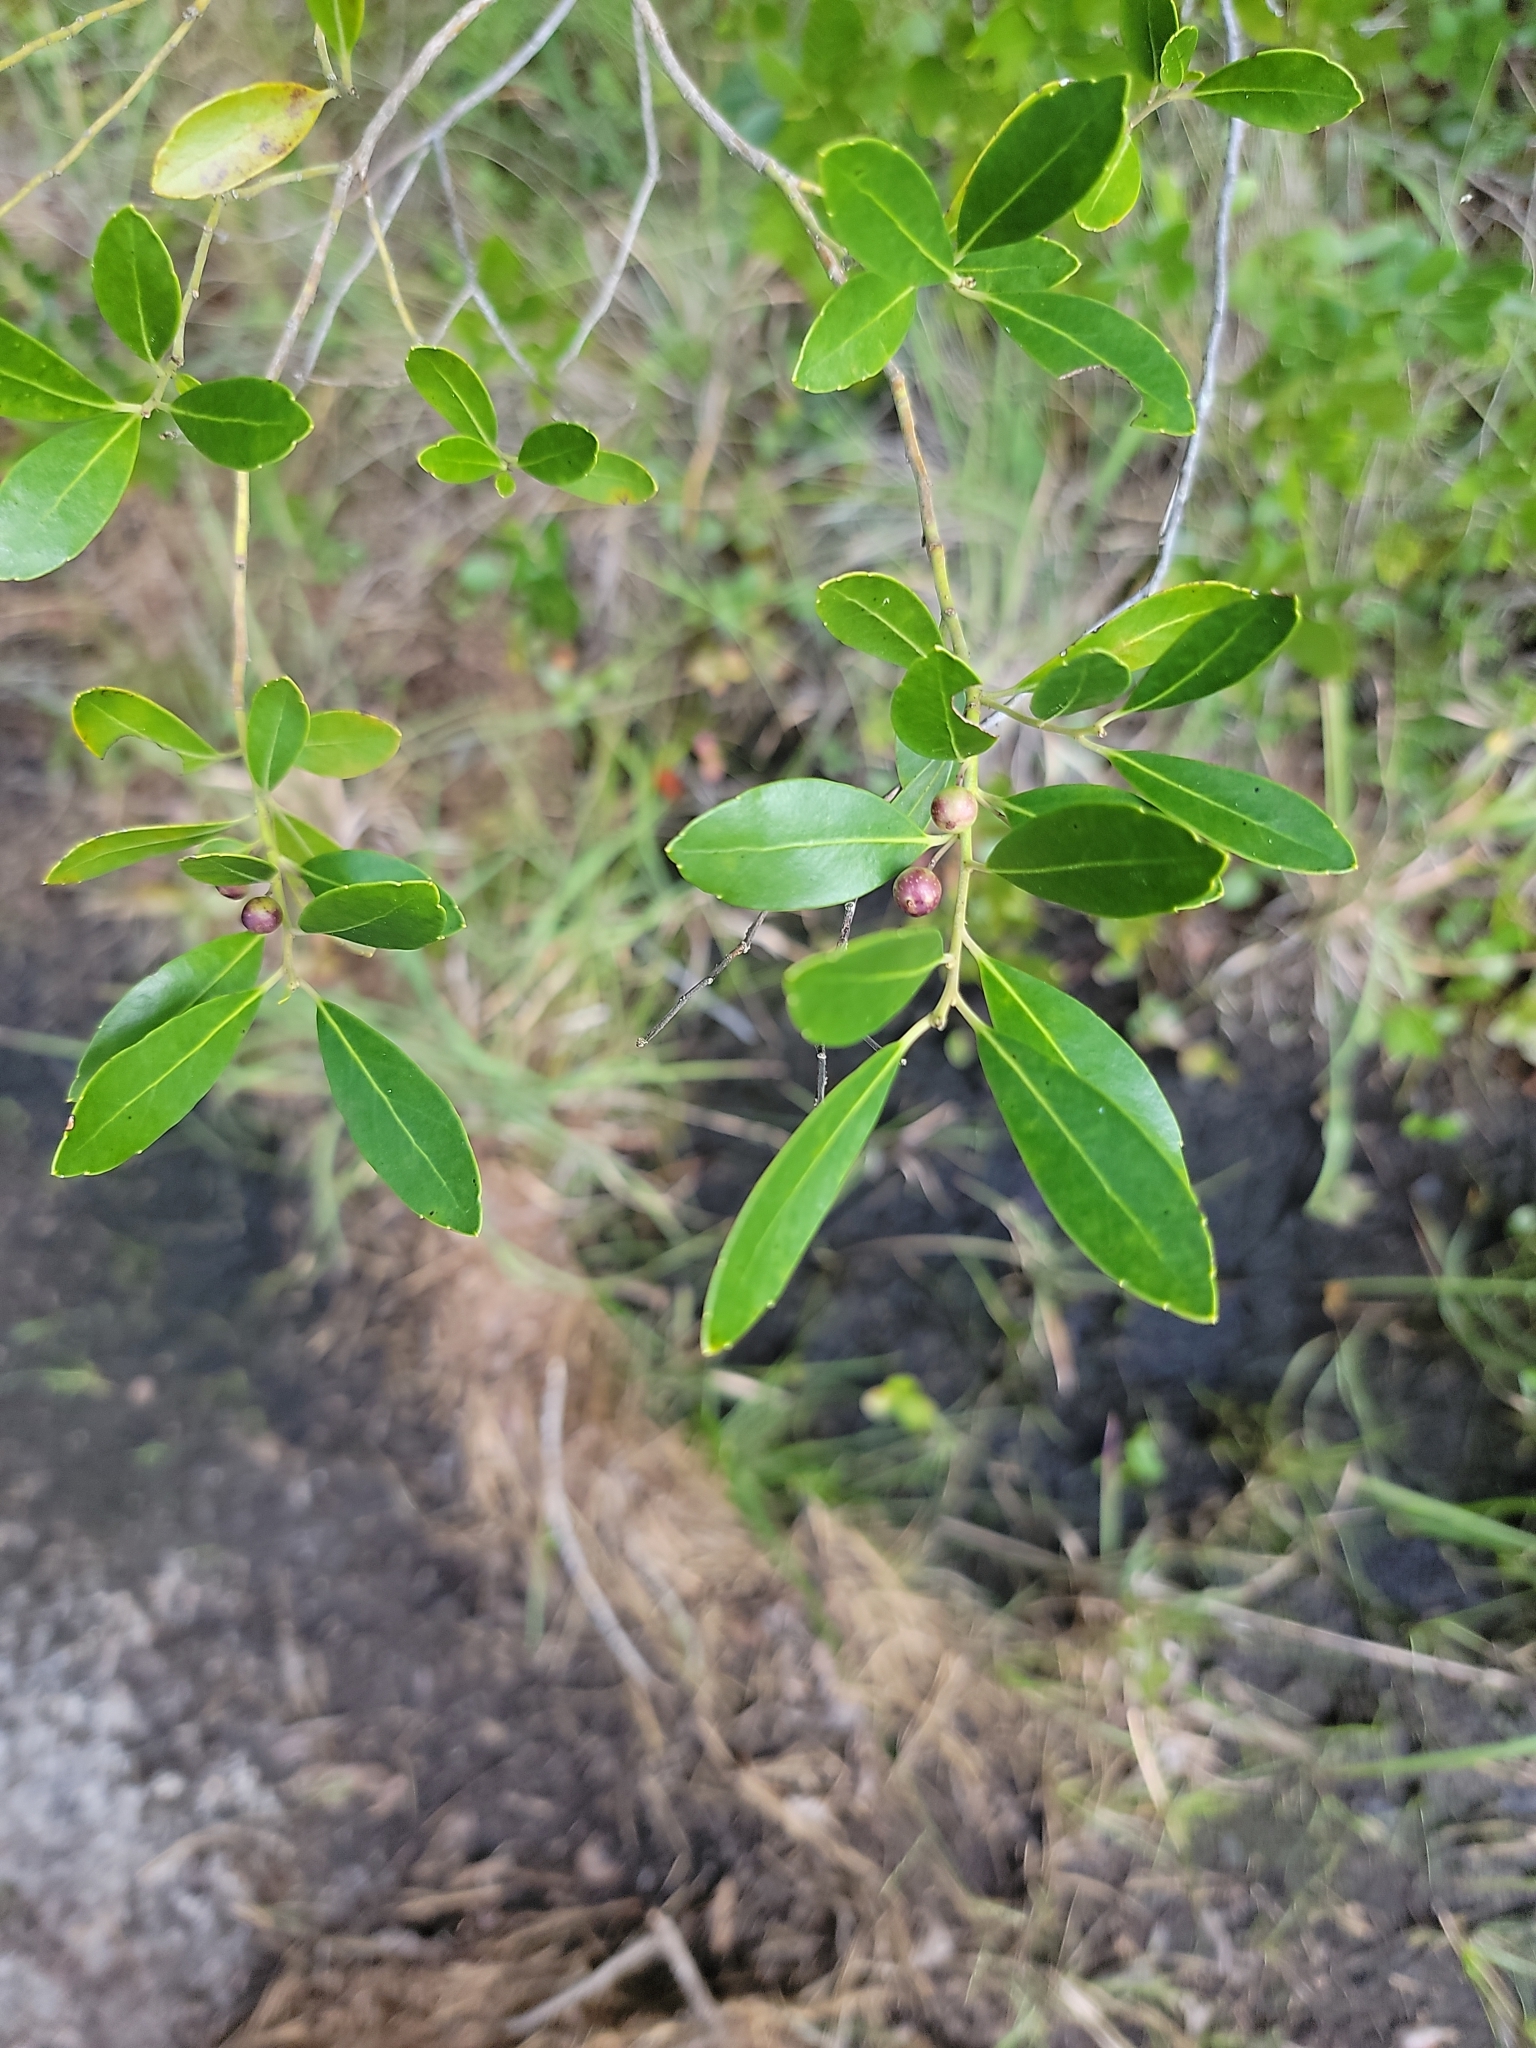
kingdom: Plantae
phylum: Tracheophyta
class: Magnoliopsida
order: Aquifoliales
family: Aquifoliaceae
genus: Ilex
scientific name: Ilex glabra
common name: Bitter gallberry
